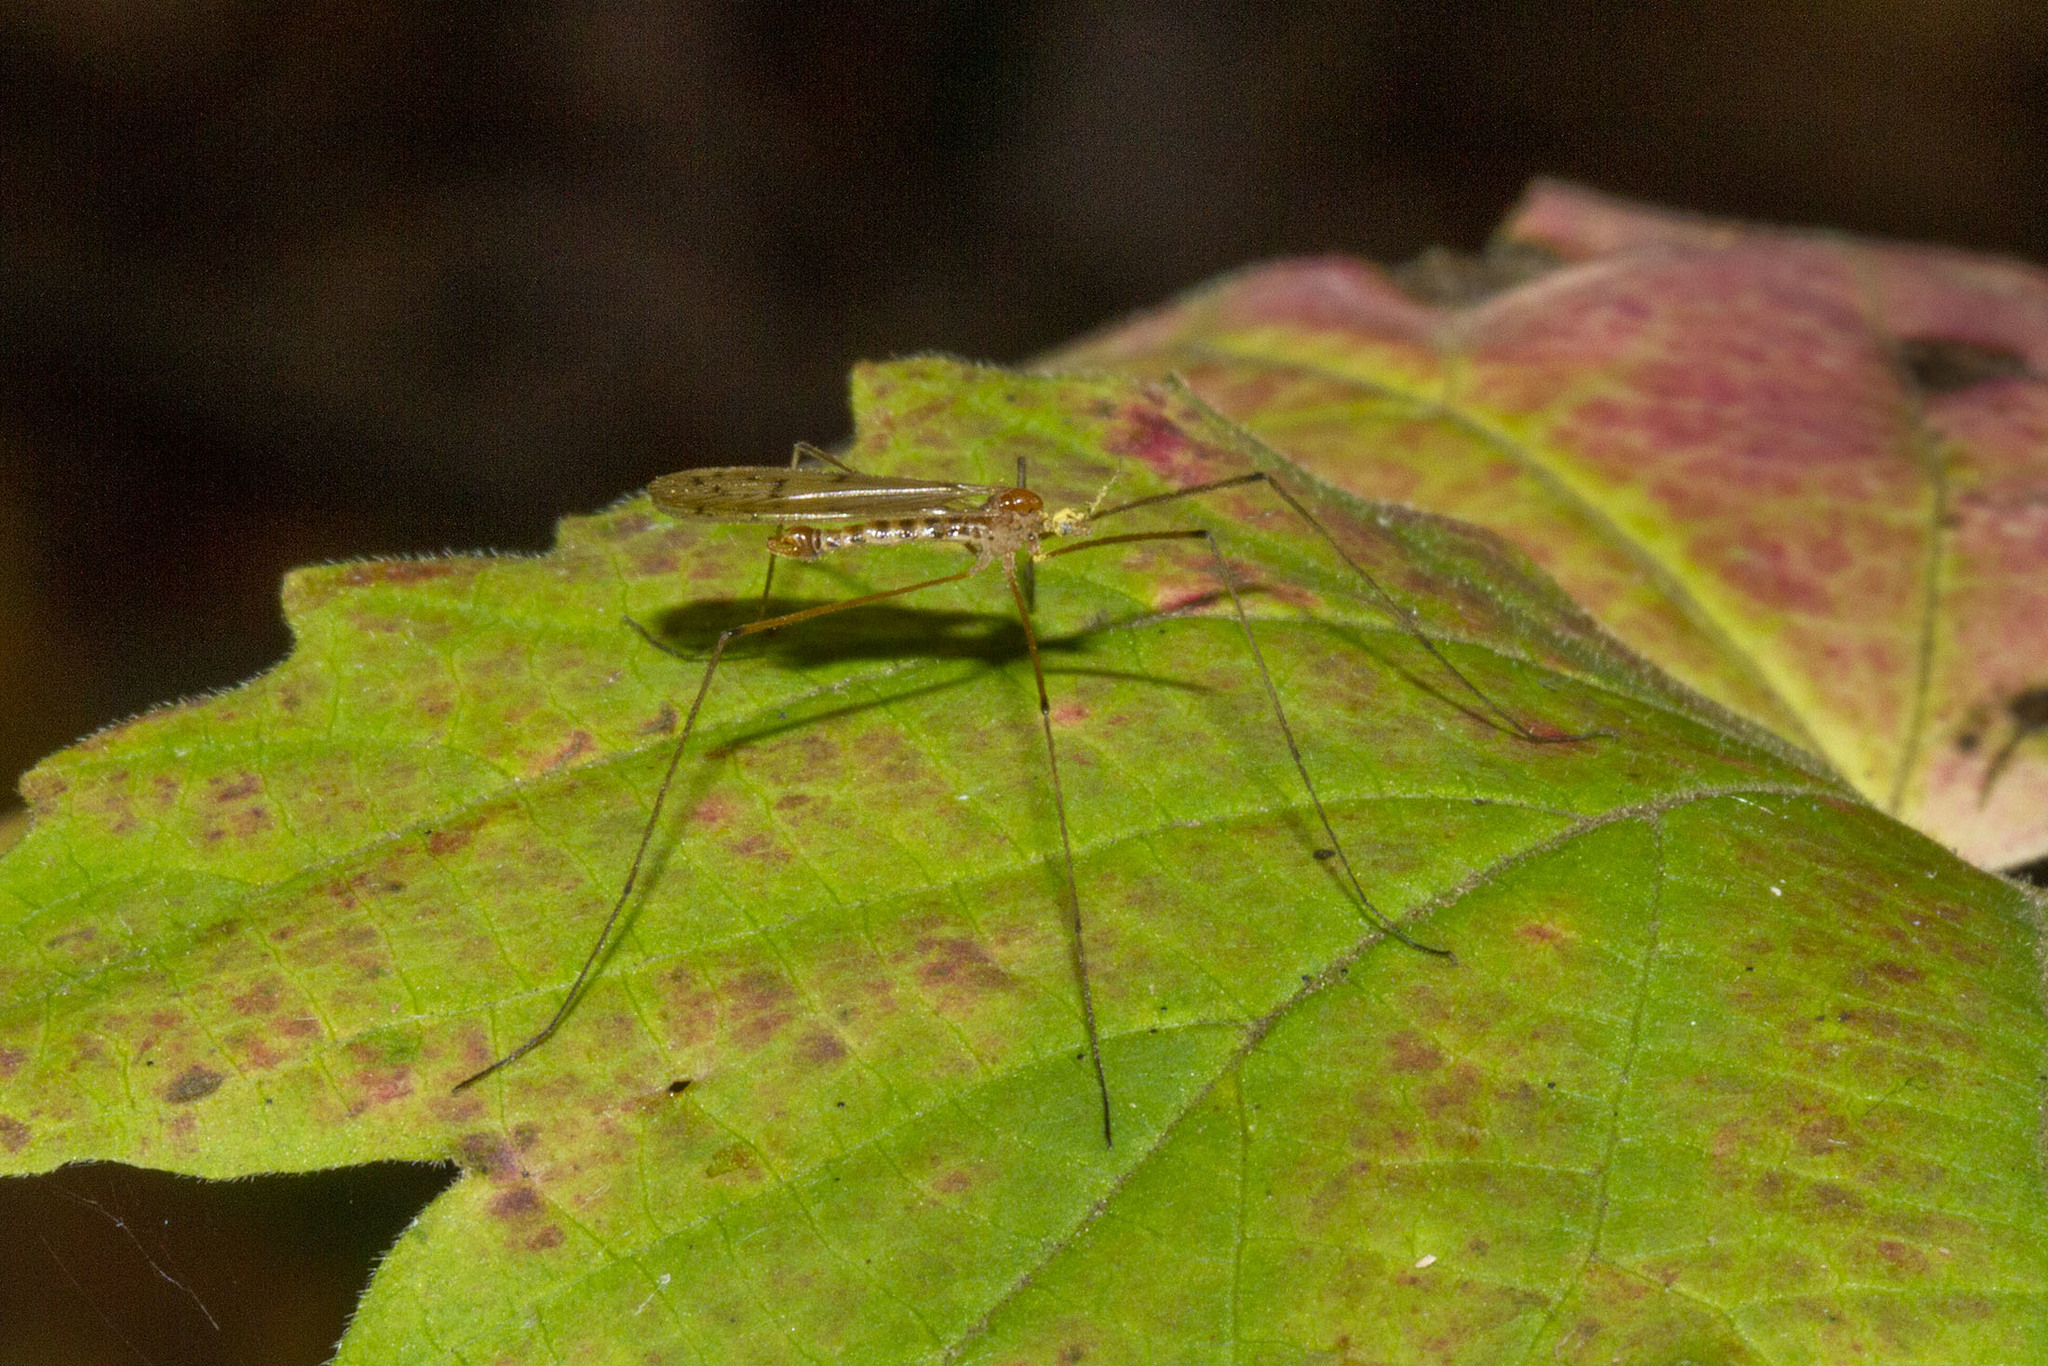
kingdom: Animalia
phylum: Arthropoda
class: Insecta
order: Diptera
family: Limoniidae
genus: Cladura
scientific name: Cladura flavoferruginea
